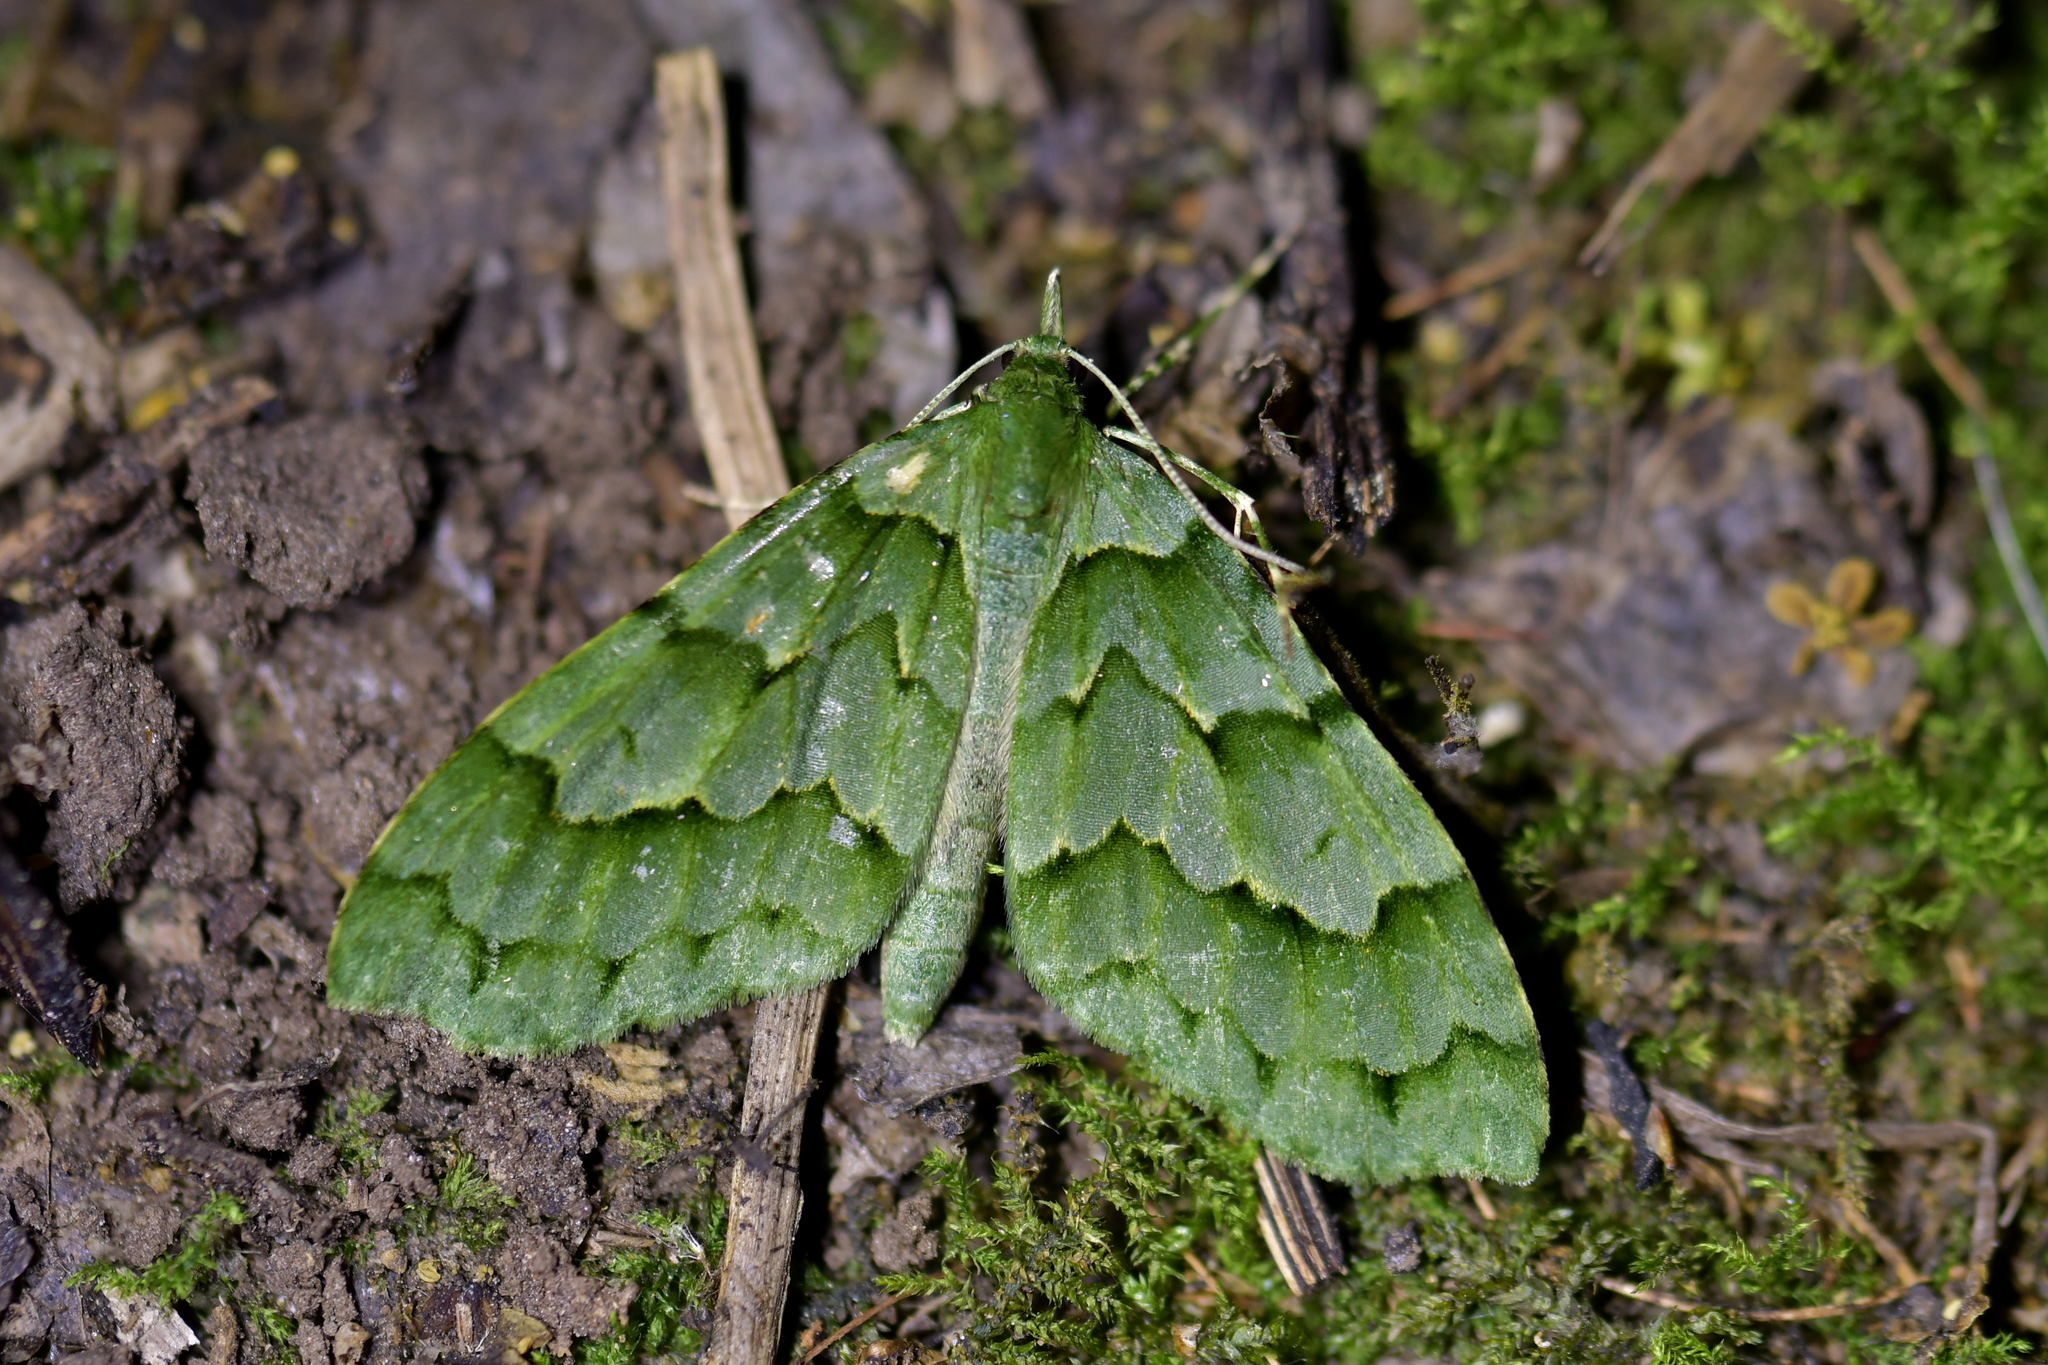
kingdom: Animalia
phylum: Arthropoda
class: Insecta
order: Lepidoptera
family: Geometridae
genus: Tatosoma
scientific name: Tatosoma lestevata
